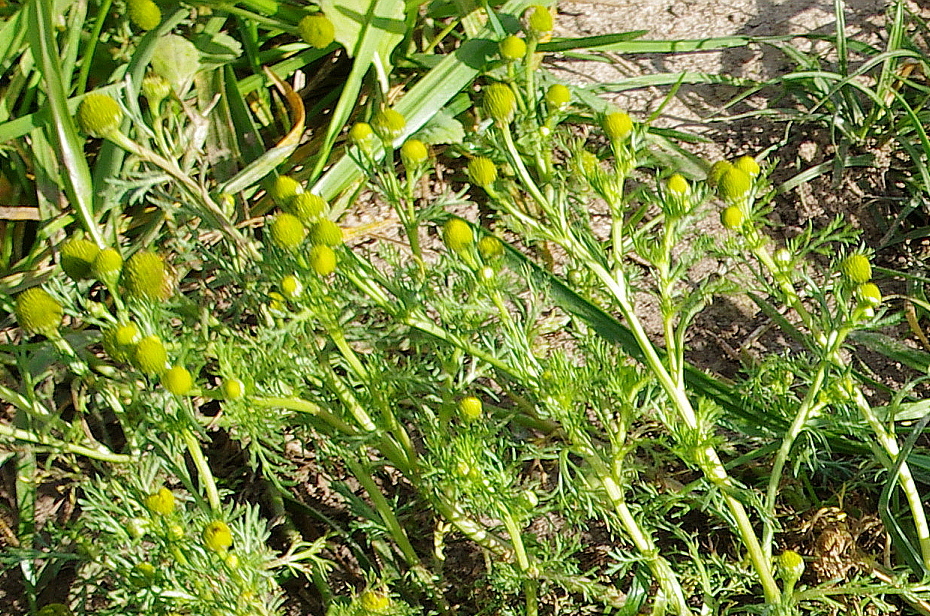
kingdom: Plantae
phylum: Tracheophyta
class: Magnoliopsida
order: Asterales
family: Asteraceae
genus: Matricaria
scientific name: Matricaria discoidea
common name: Disc mayweed
